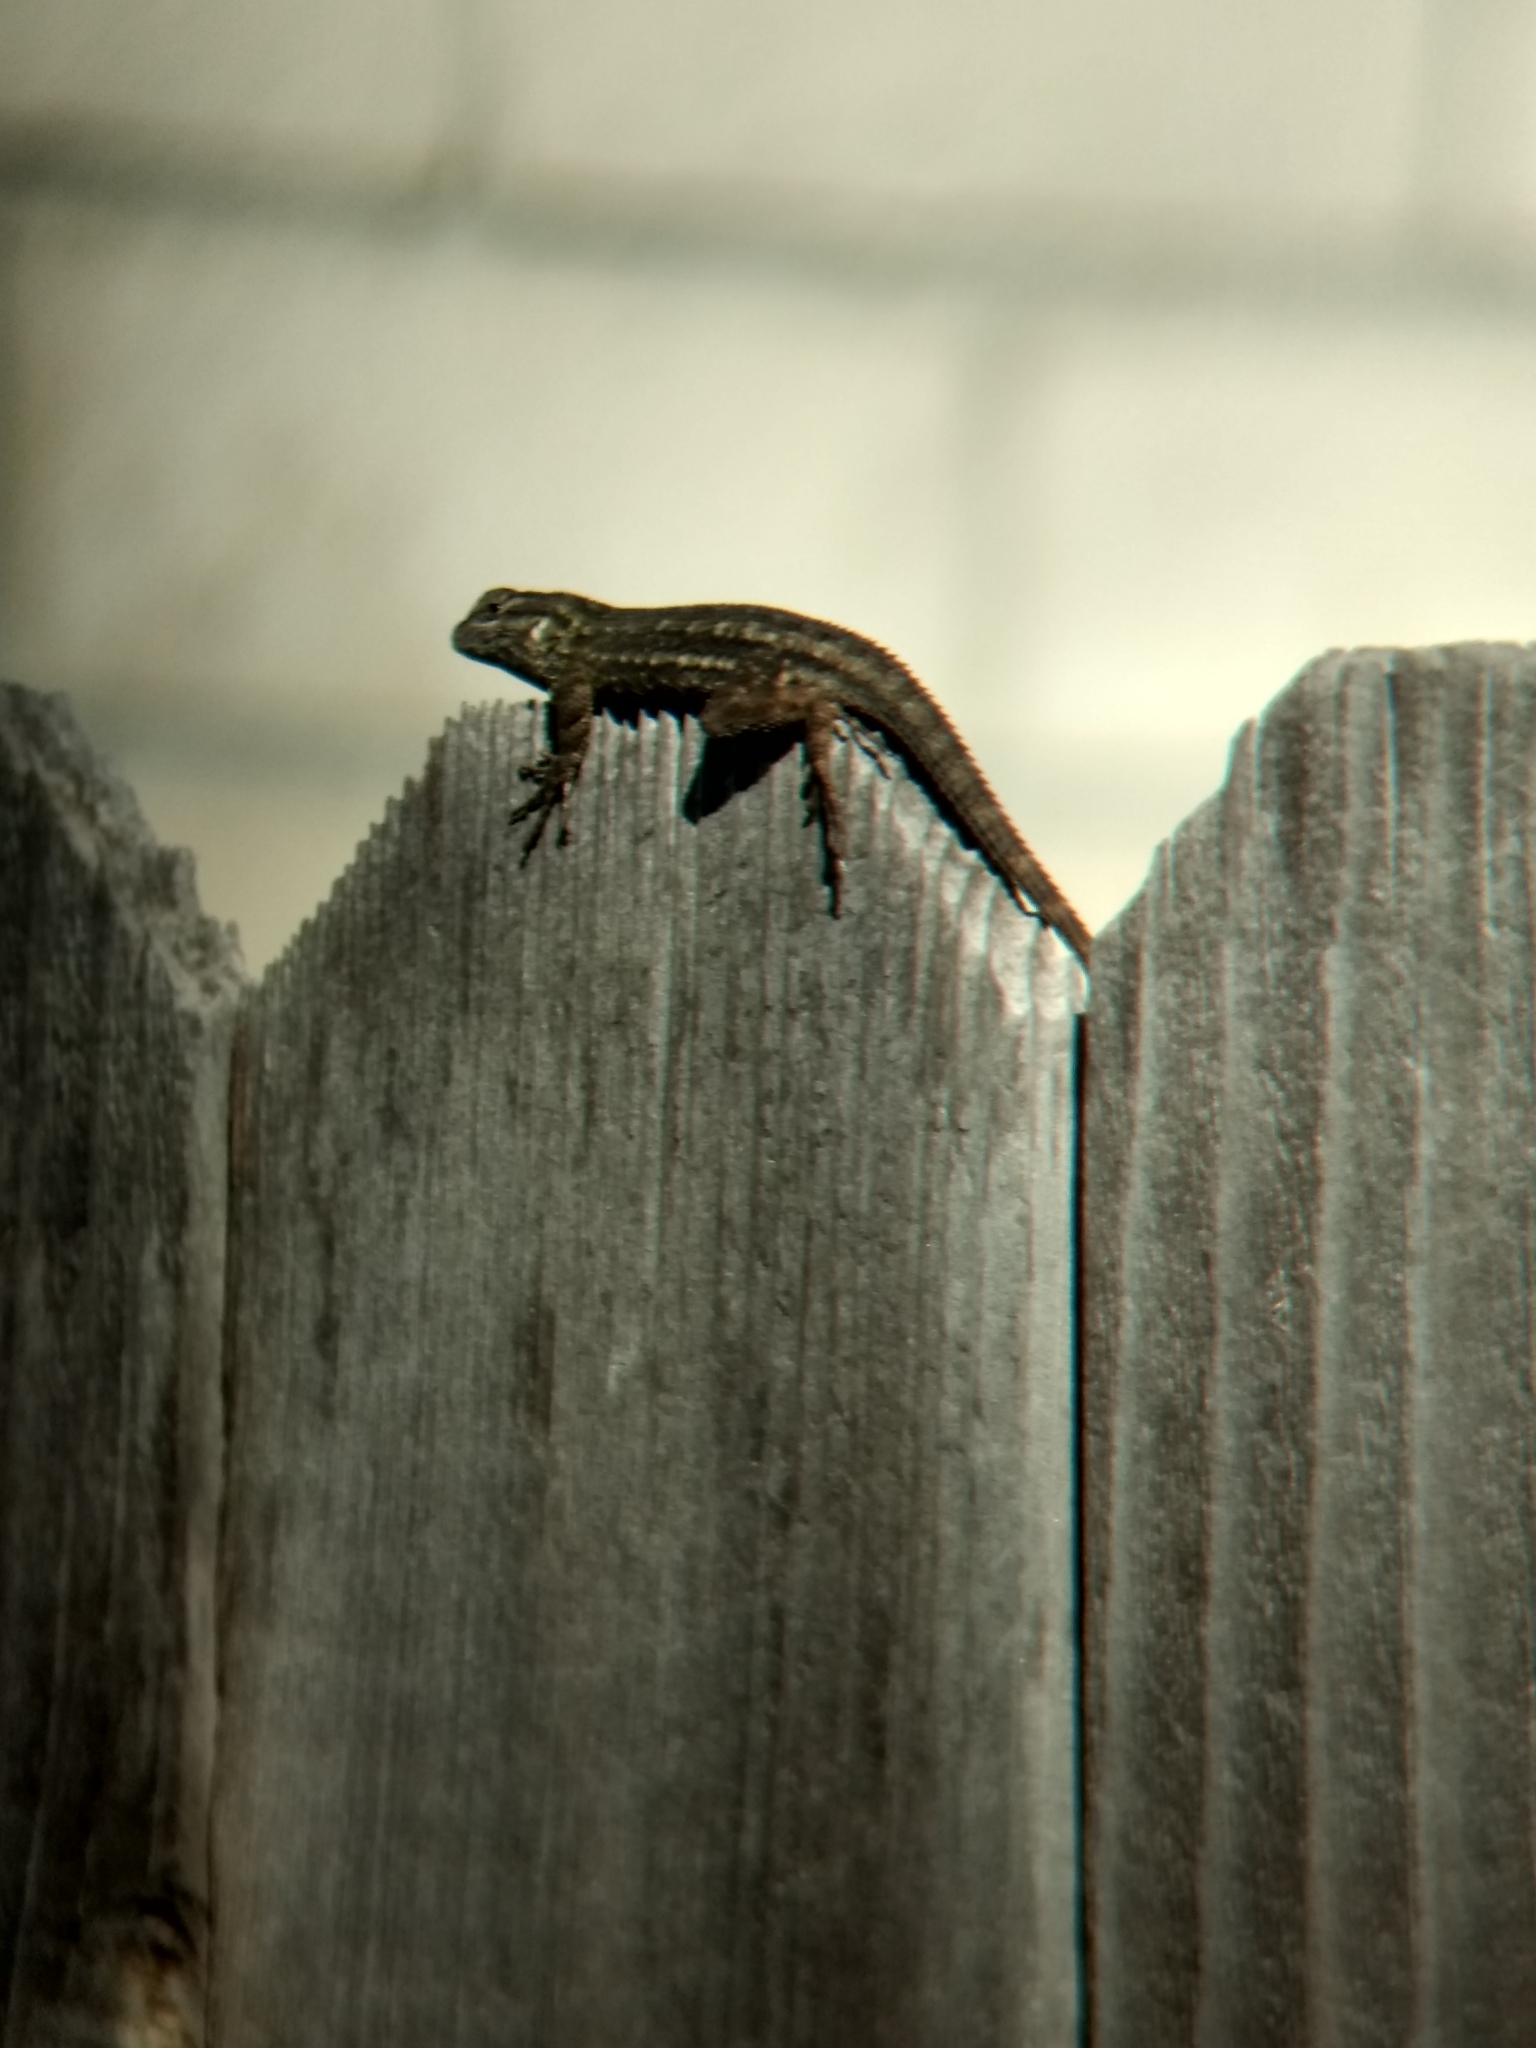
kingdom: Animalia
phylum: Chordata
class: Squamata
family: Phrynosomatidae
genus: Sceloporus
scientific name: Sceloporus occidentalis
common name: Western fence lizard
